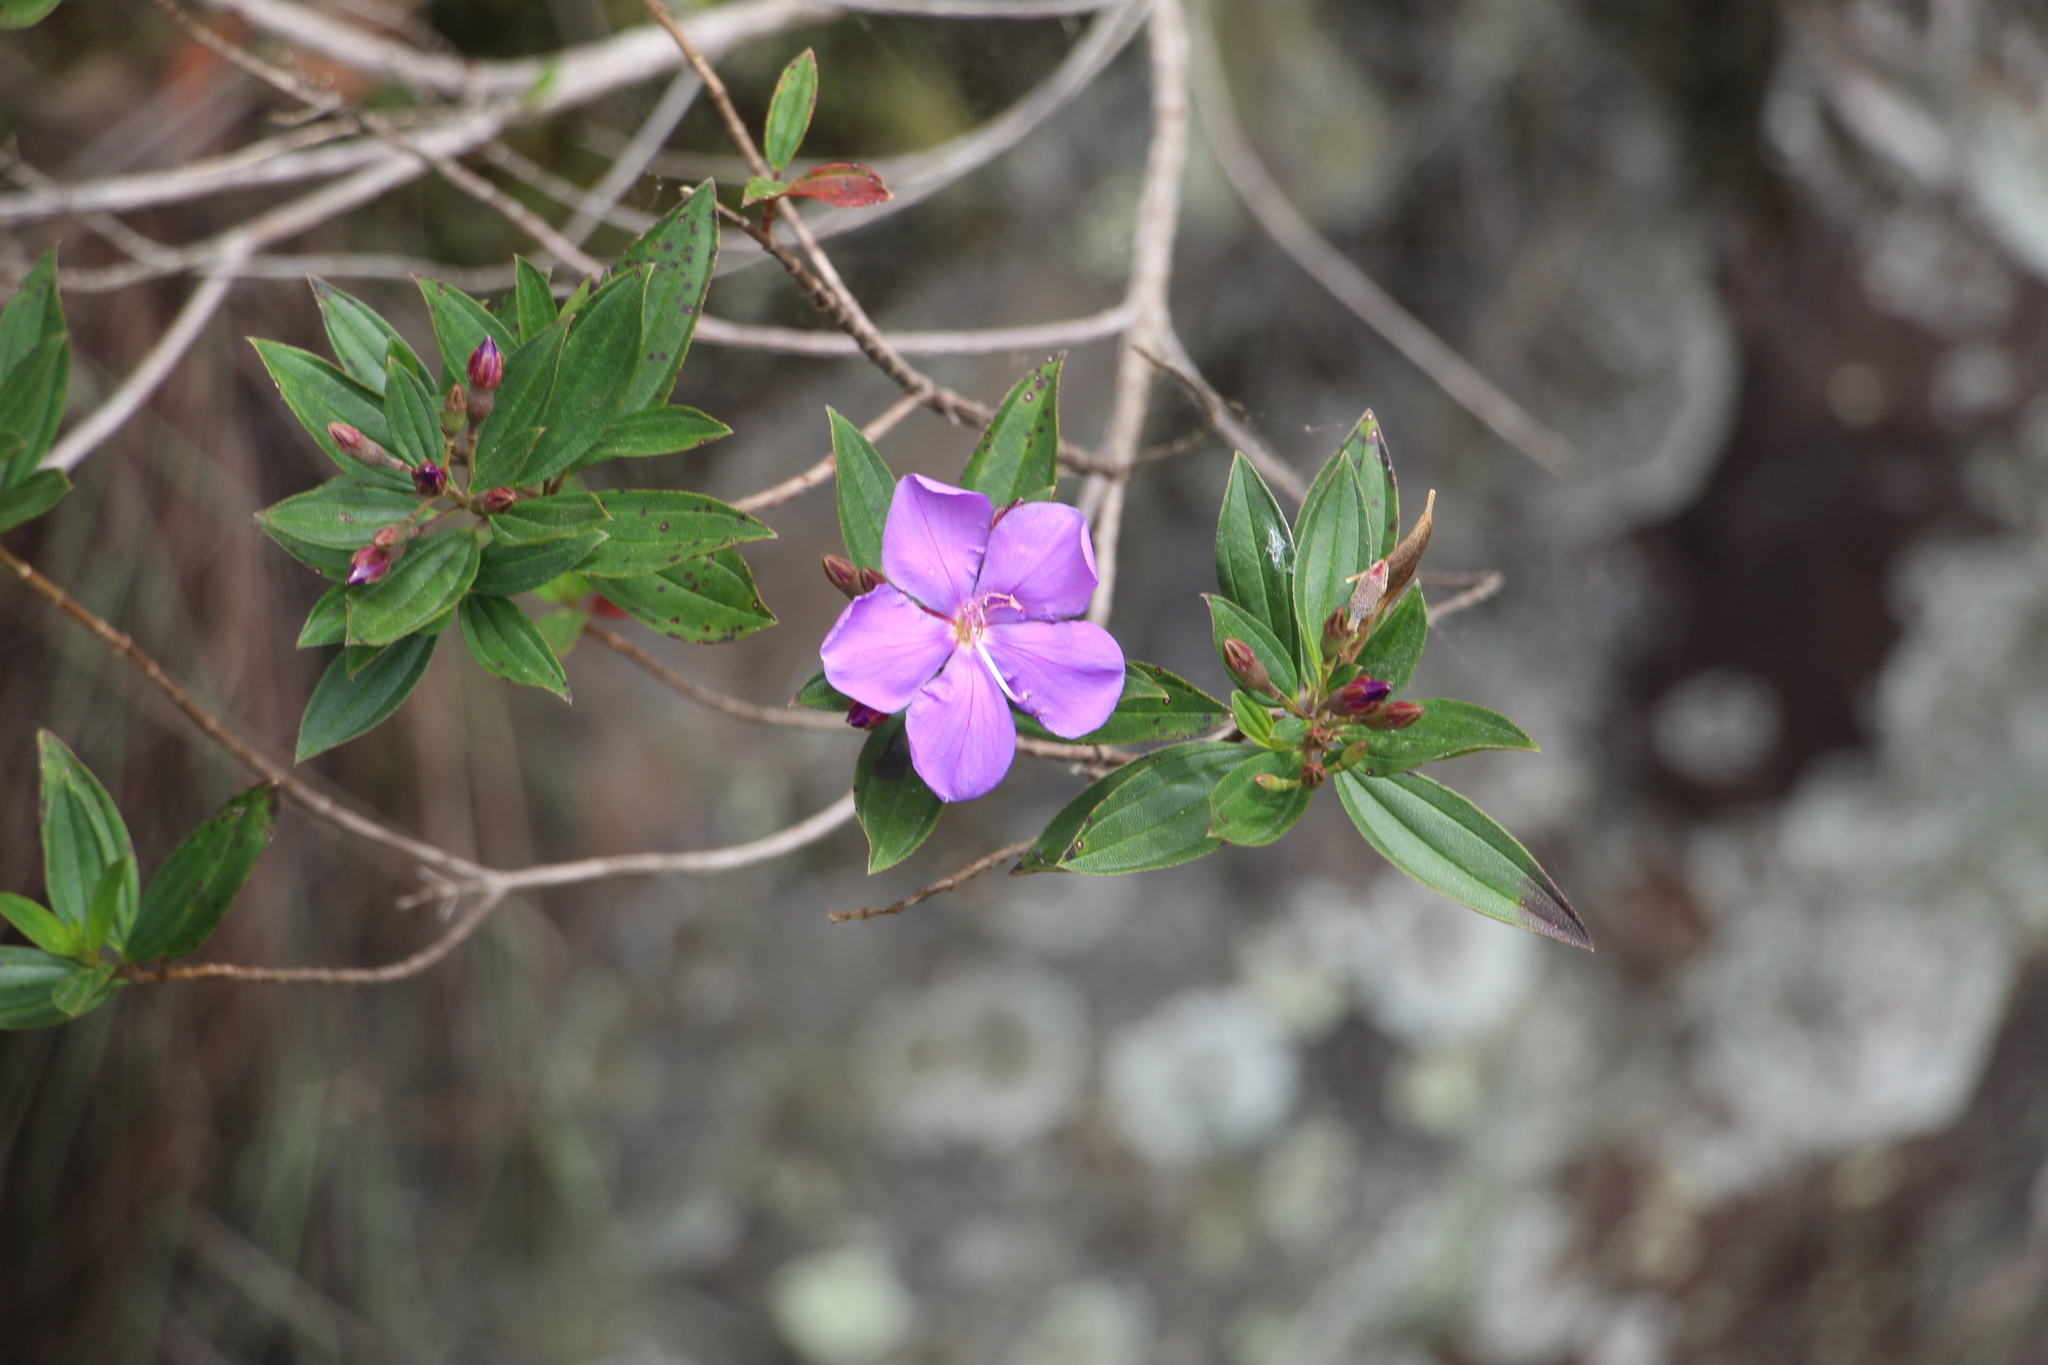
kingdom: Plantae
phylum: Tracheophyta
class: Magnoliopsida
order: Myrtales
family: Melastomataceae
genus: Pleroma
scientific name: Pleroma martiale
